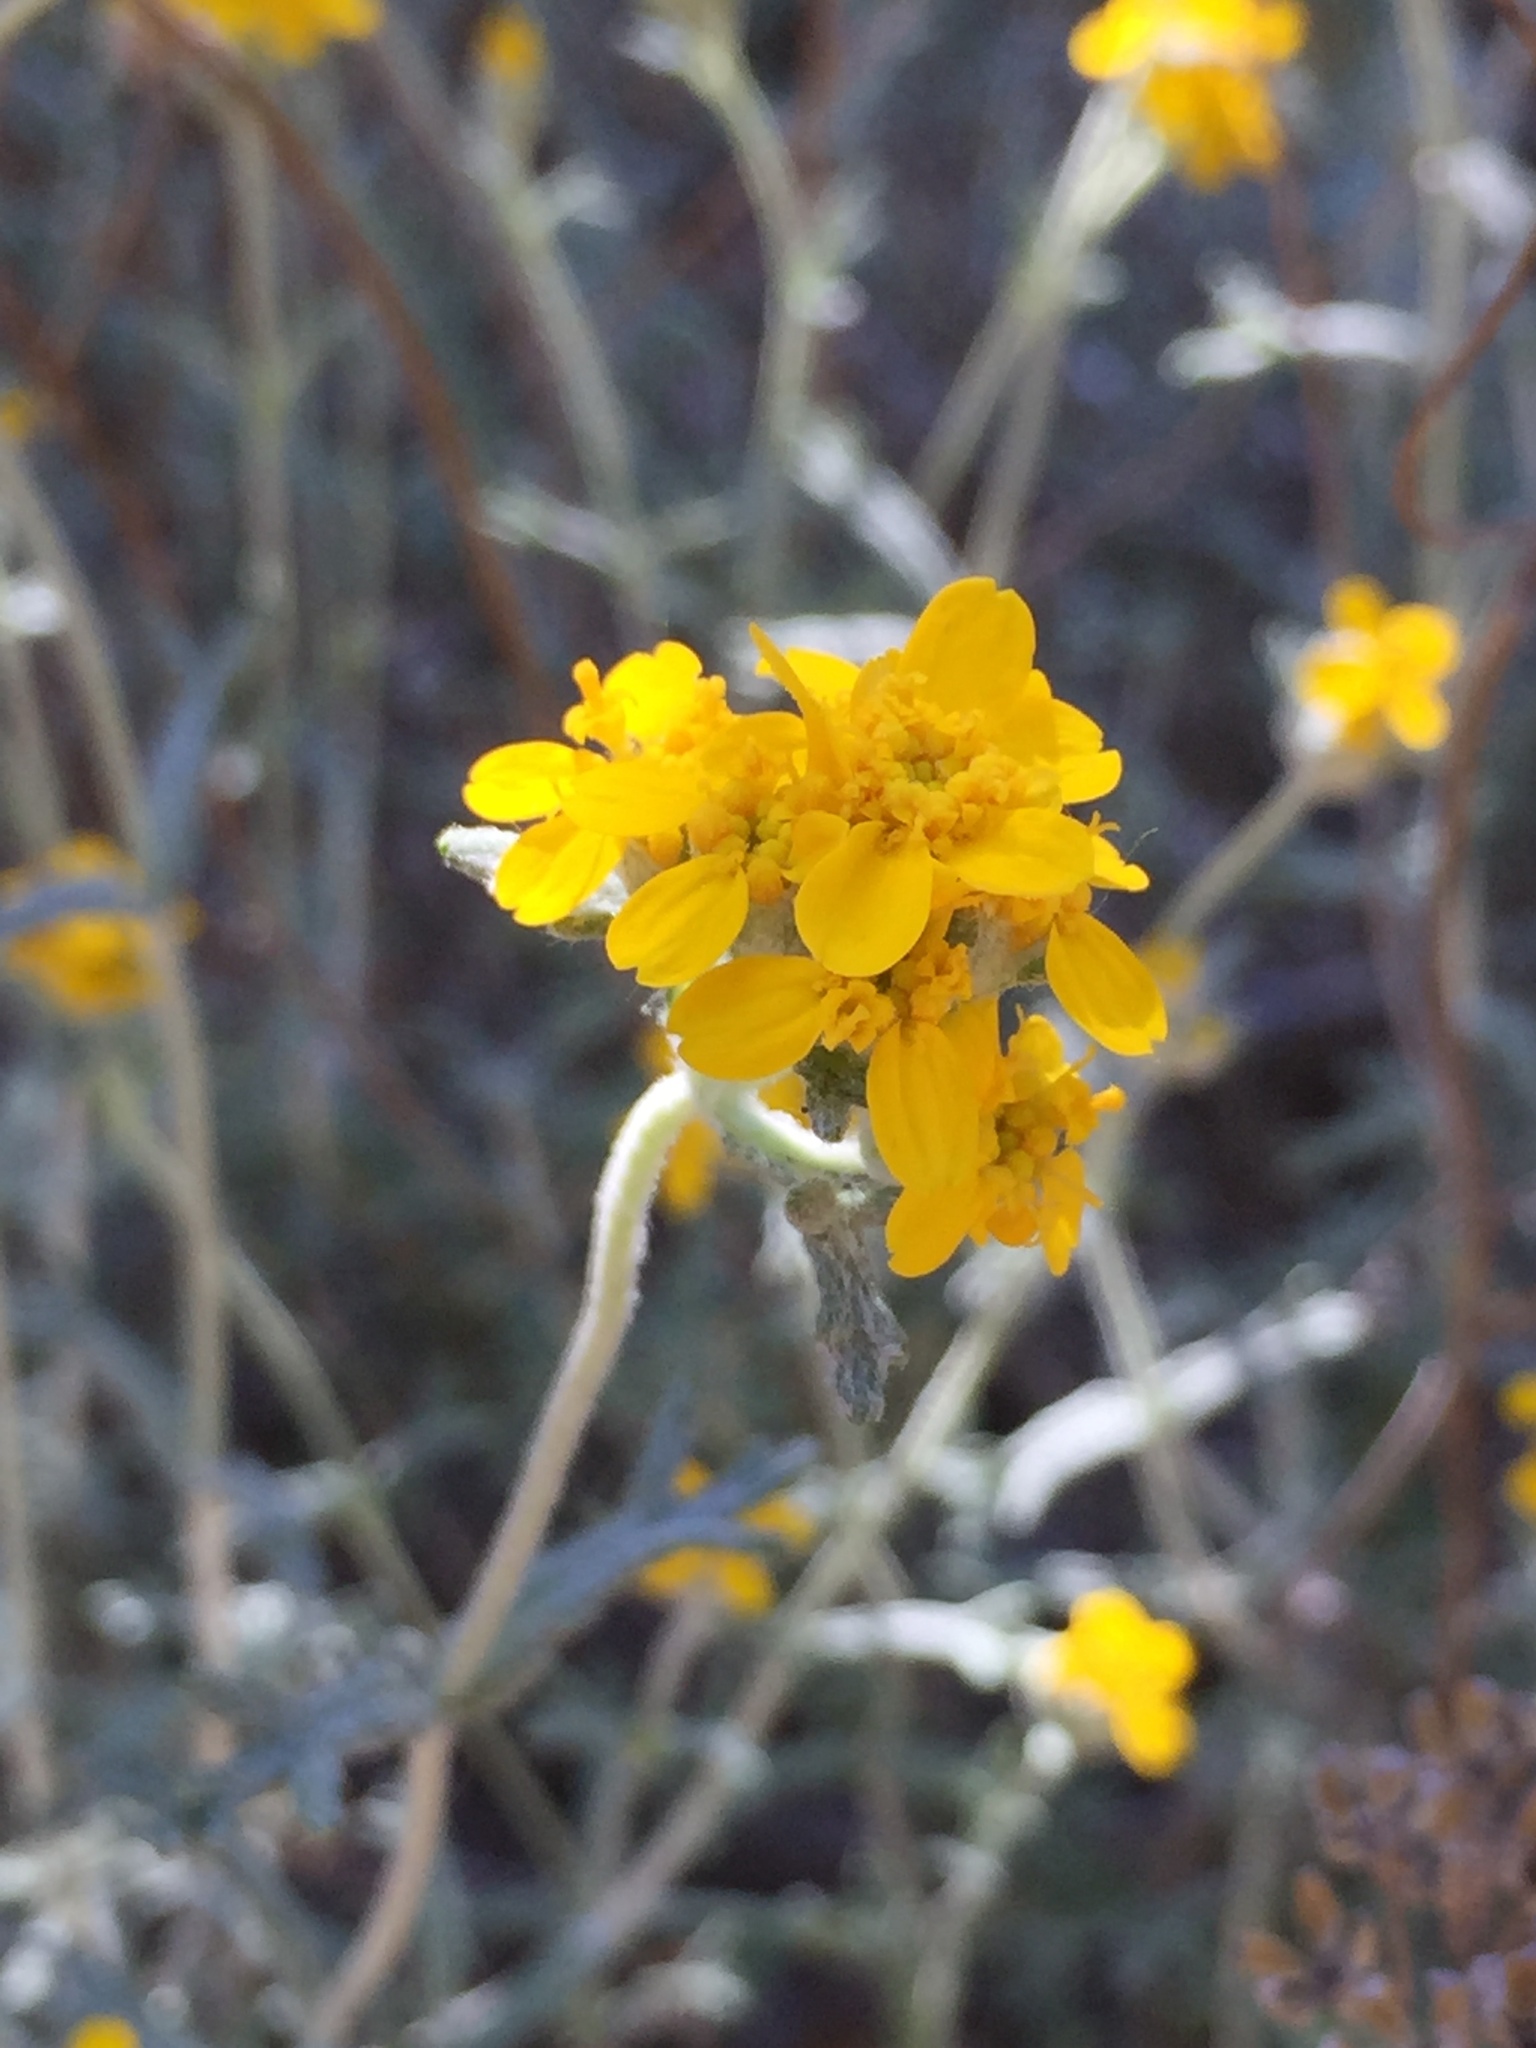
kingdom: Plantae
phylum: Tracheophyta
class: Magnoliopsida
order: Asterales
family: Asteraceae
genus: Eriophyllum
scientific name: Eriophyllum confertiflorum
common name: Golden-yarrow
